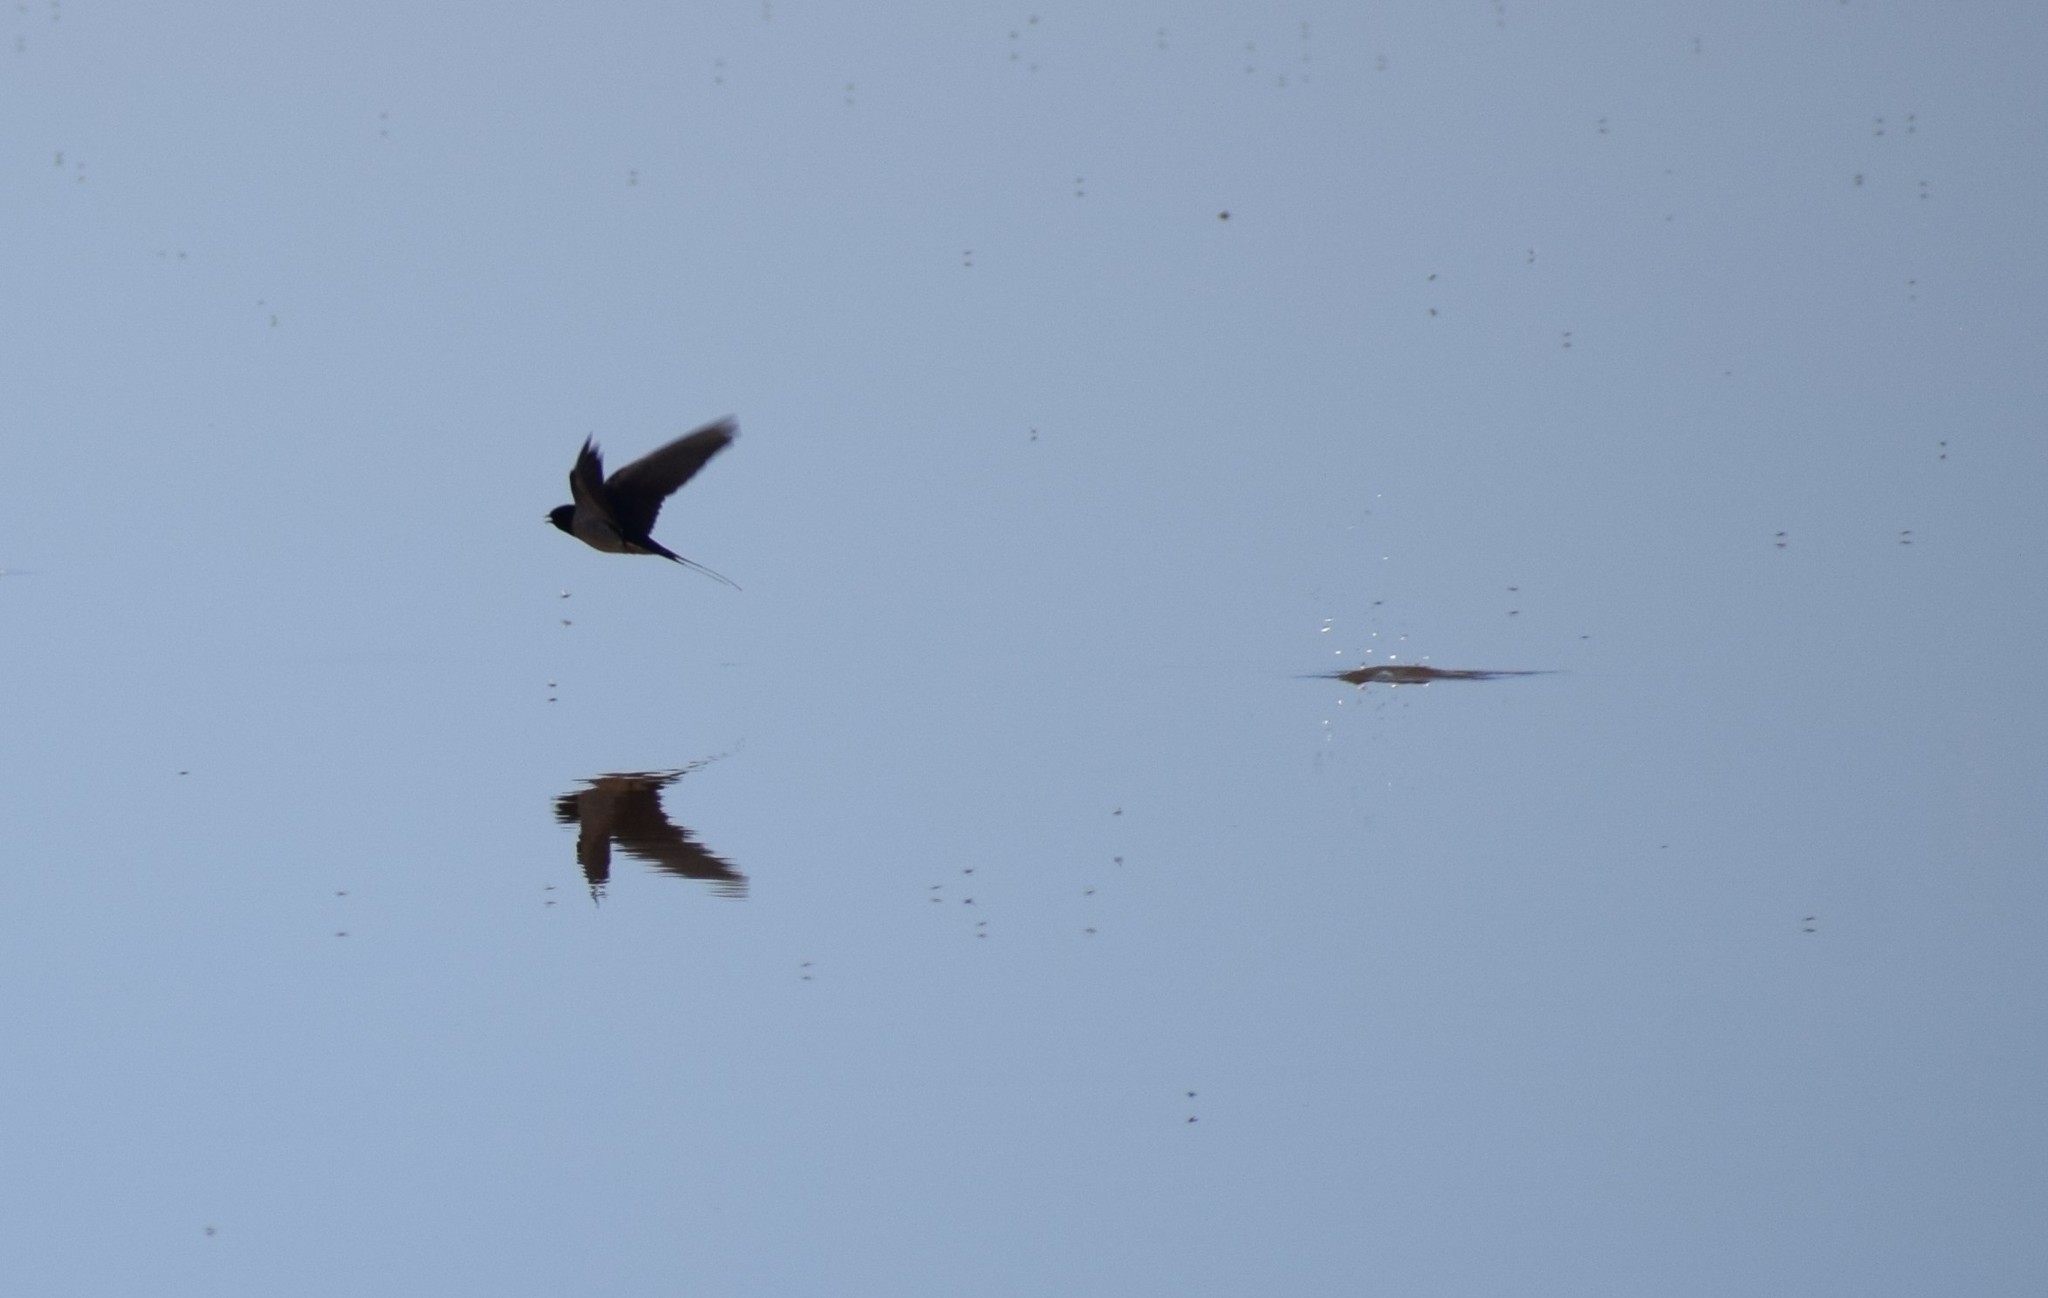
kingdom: Animalia
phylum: Chordata
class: Aves
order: Passeriformes
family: Hirundinidae
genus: Hirundo
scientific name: Hirundo rustica
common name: Barn swallow
